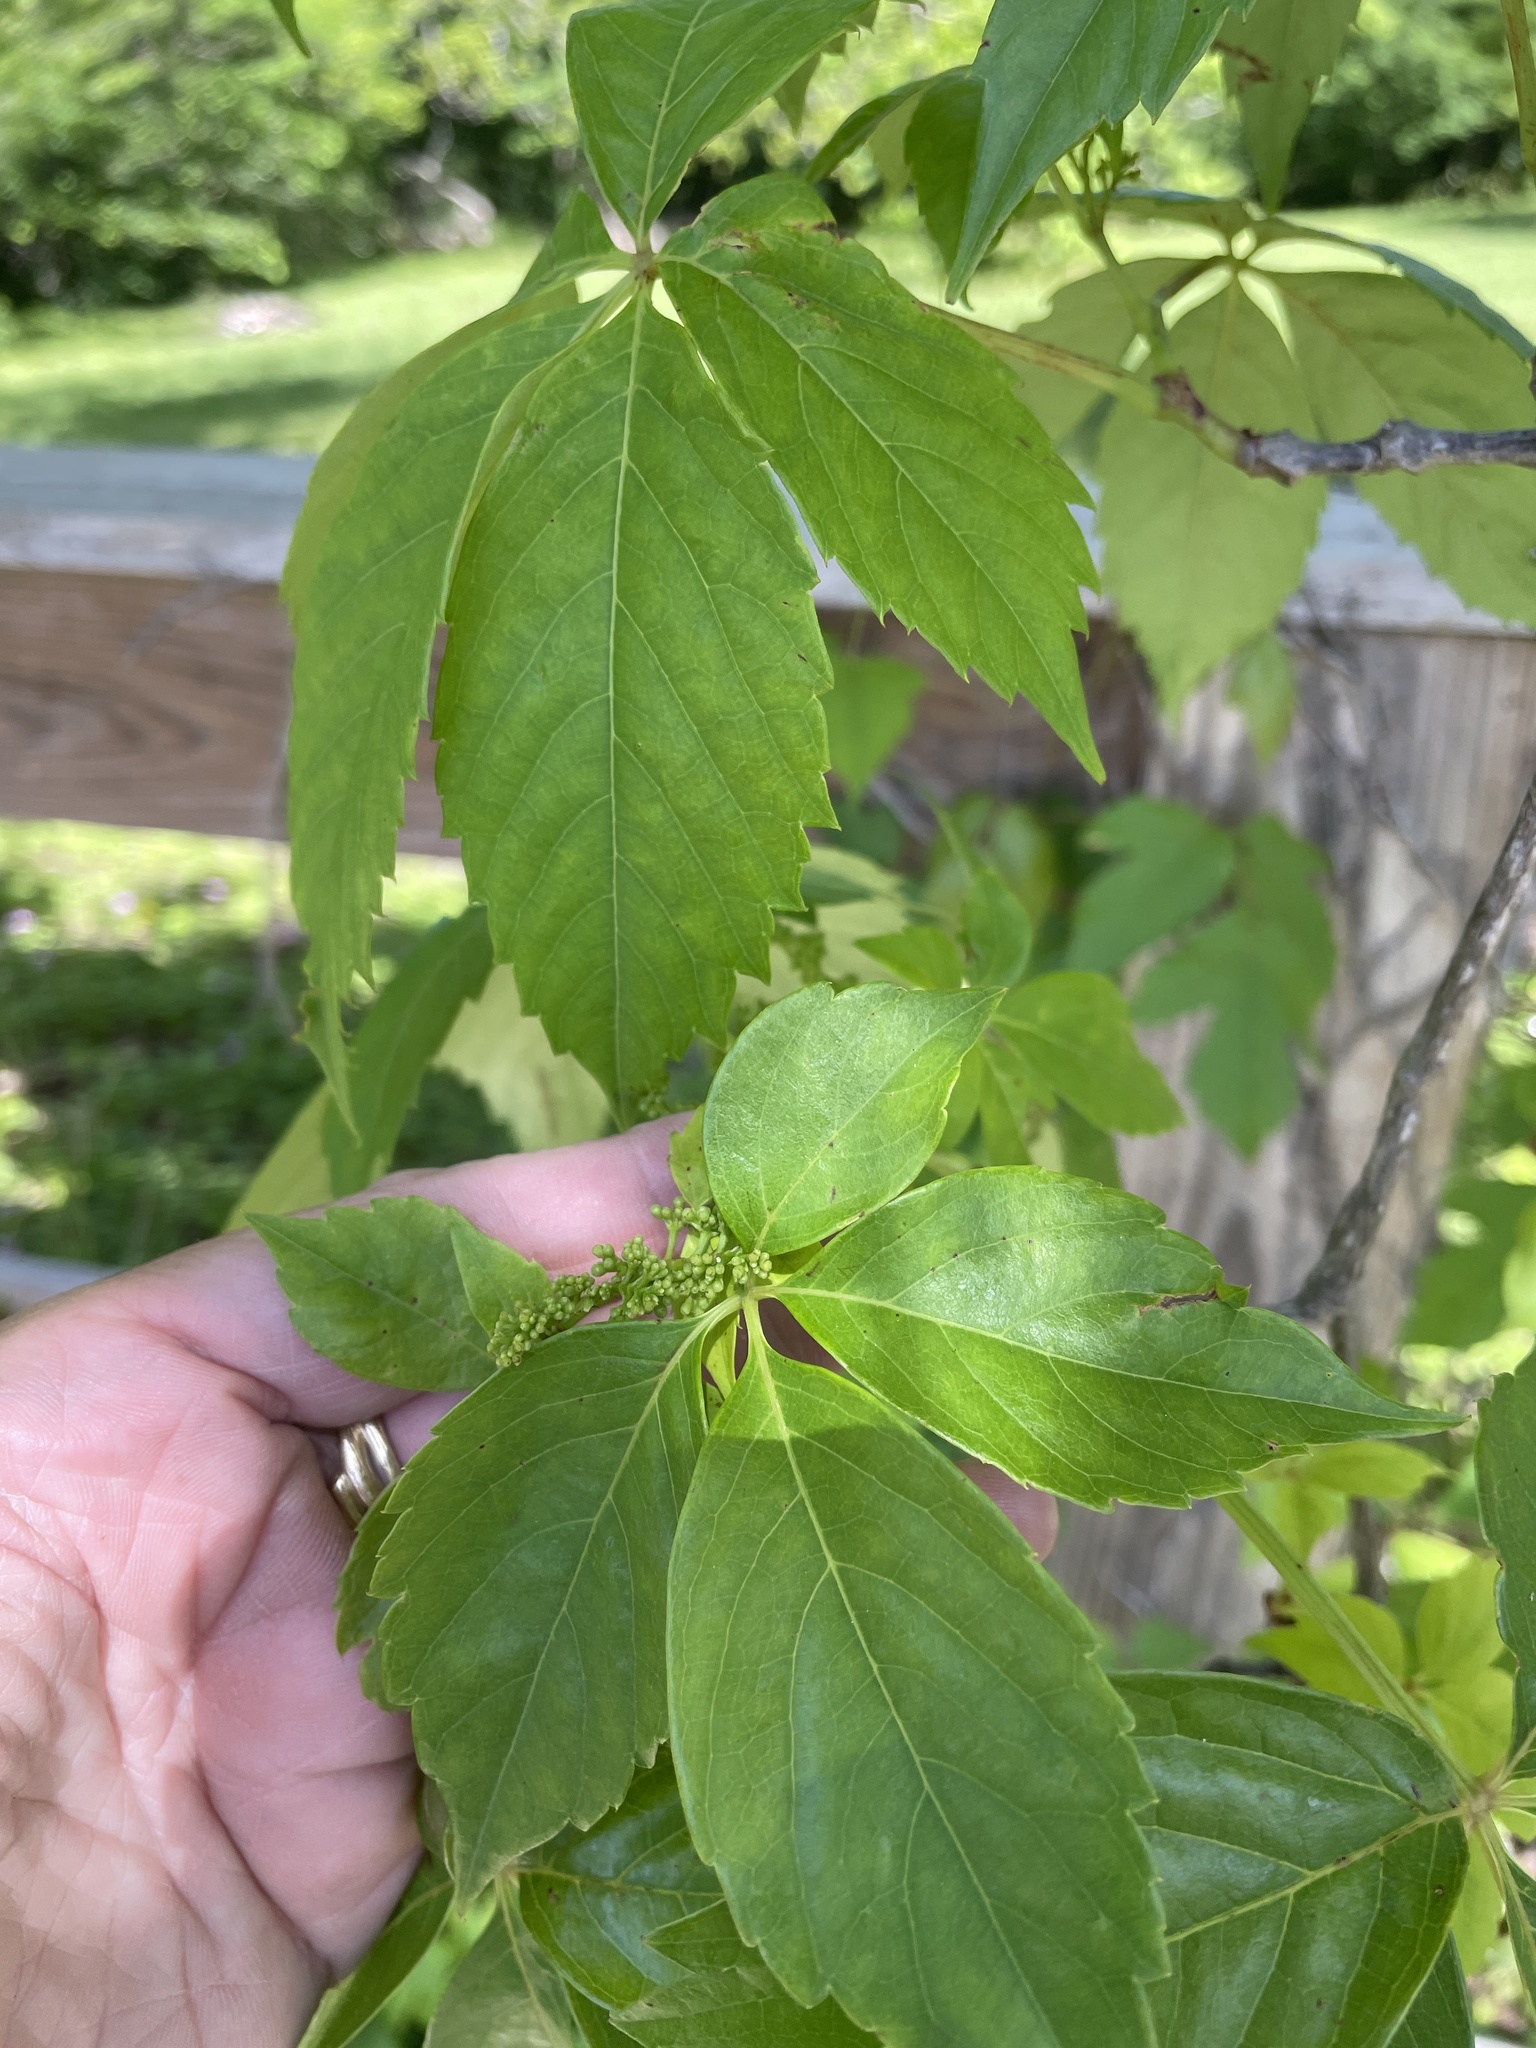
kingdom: Plantae
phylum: Tracheophyta
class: Magnoliopsida
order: Vitales
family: Vitaceae
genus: Parthenocissus
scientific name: Parthenocissus quinquefolia
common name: Virginia-creeper
